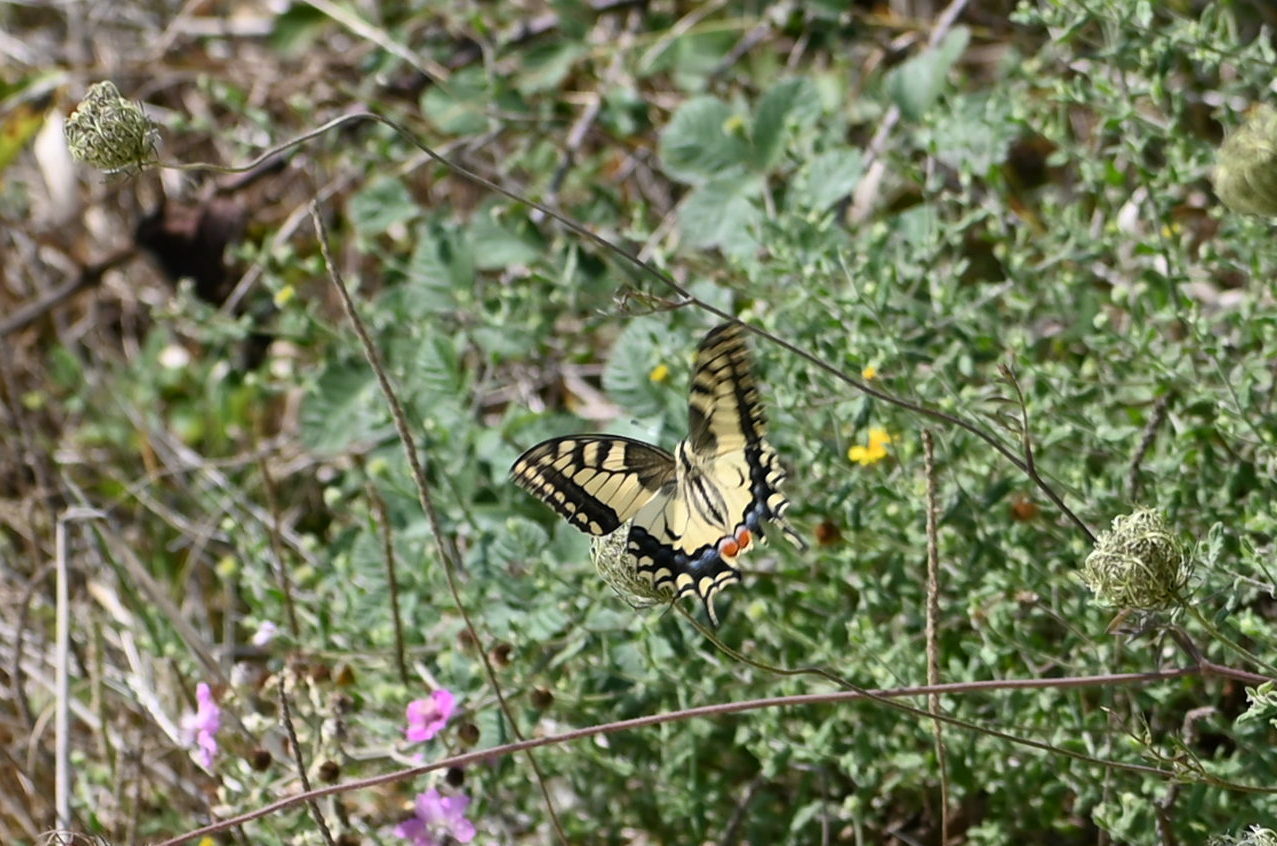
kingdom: Animalia
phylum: Arthropoda
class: Insecta
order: Lepidoptera
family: Papilionidae
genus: Papilio
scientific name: Papilio machaon
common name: Swallowtail
